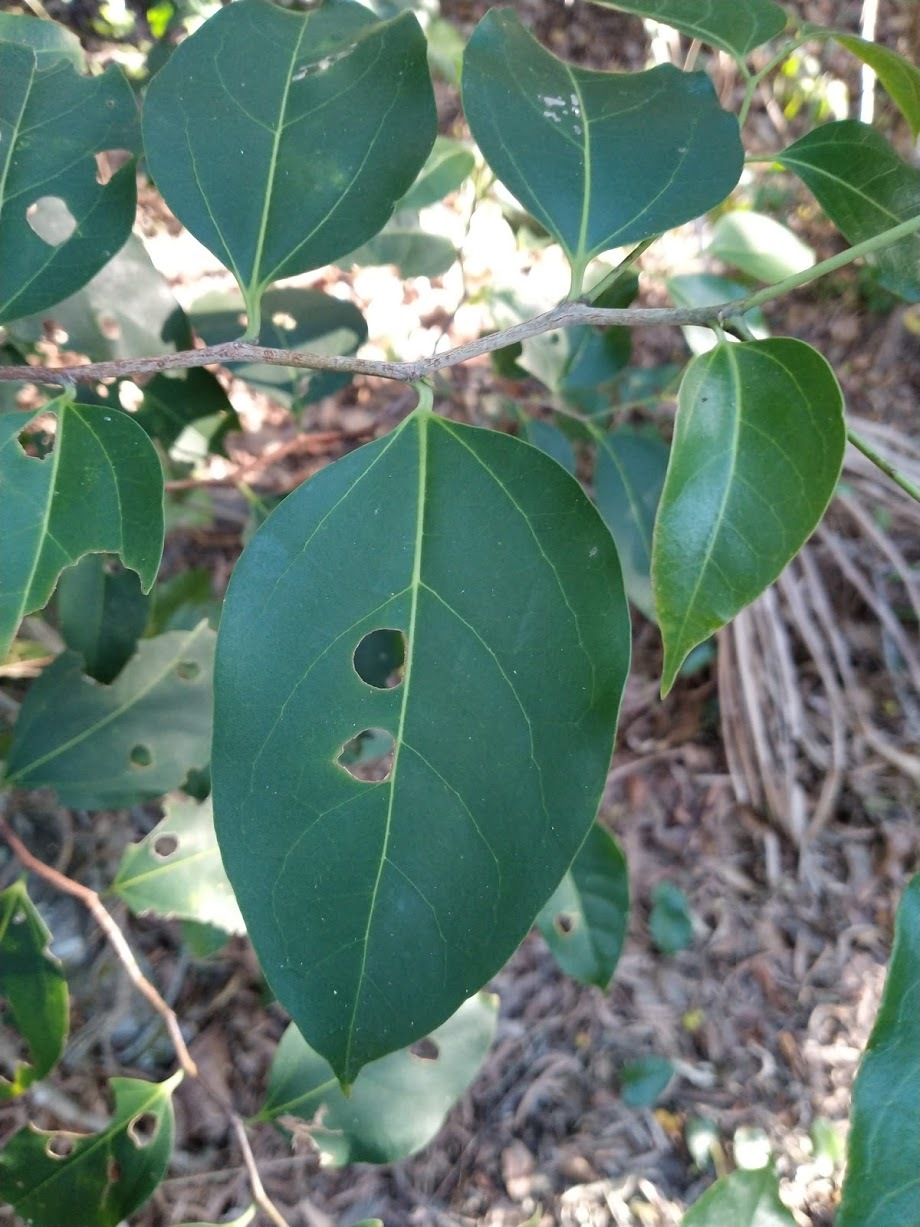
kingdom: Plantae
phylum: Tracheophyta
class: Magnoliopsida
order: Rosales
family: Cannabaceae
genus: Celtis
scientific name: Celtis paniculata
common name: Silky celtis
